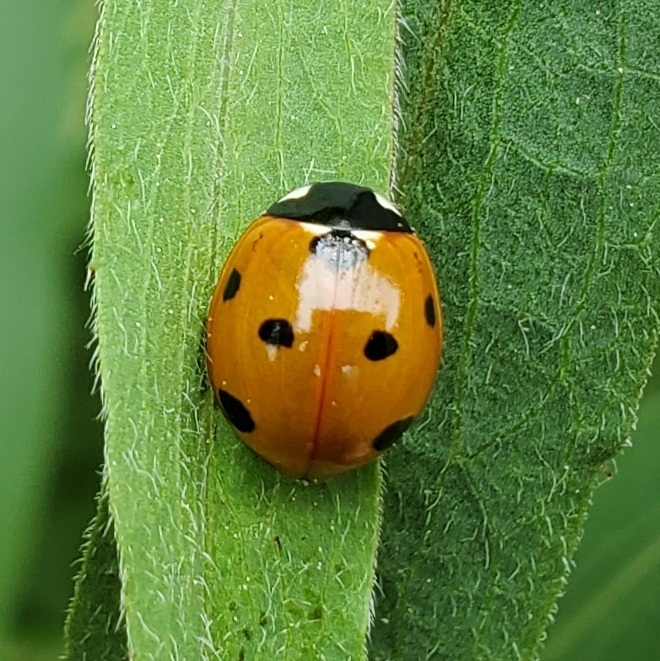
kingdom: Animalia
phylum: Arthropoda
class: Insecta
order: Coleoptera
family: Coccinellidae
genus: Coccinella
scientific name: Coccinella septempunctata
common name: Sevenspotted lady beetle
